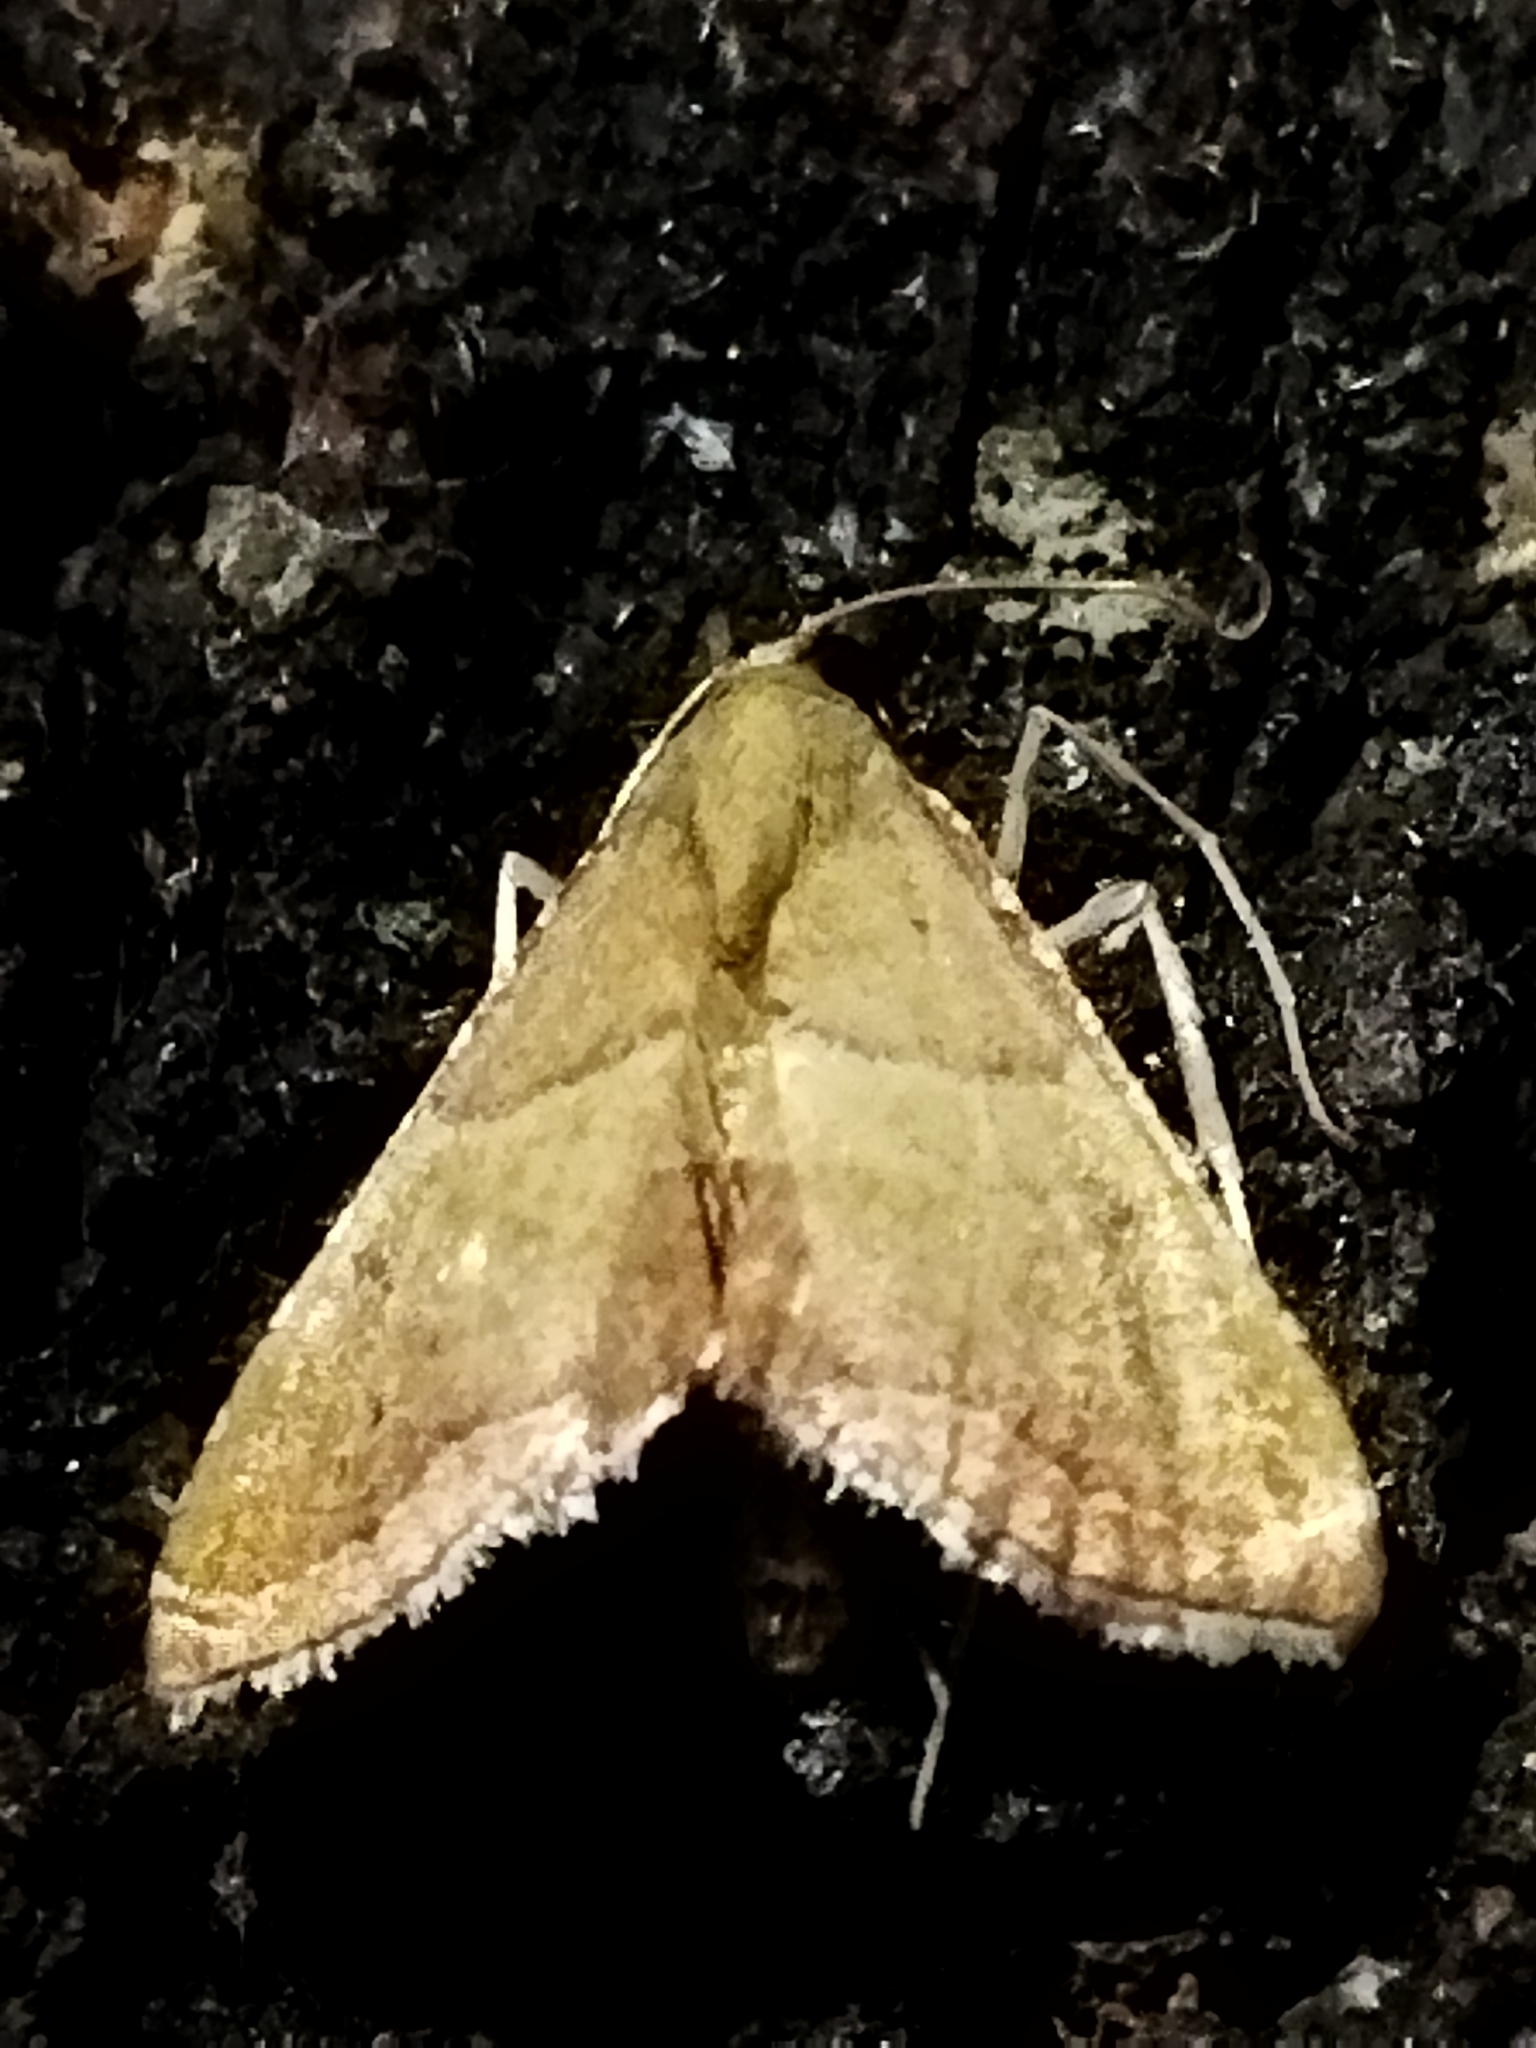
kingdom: Animalia
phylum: Arthropoda
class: Insecta
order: Lepidoptera
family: Pyralidae
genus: Endotricha
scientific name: Endotricha flammealis
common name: Rosy tabby
